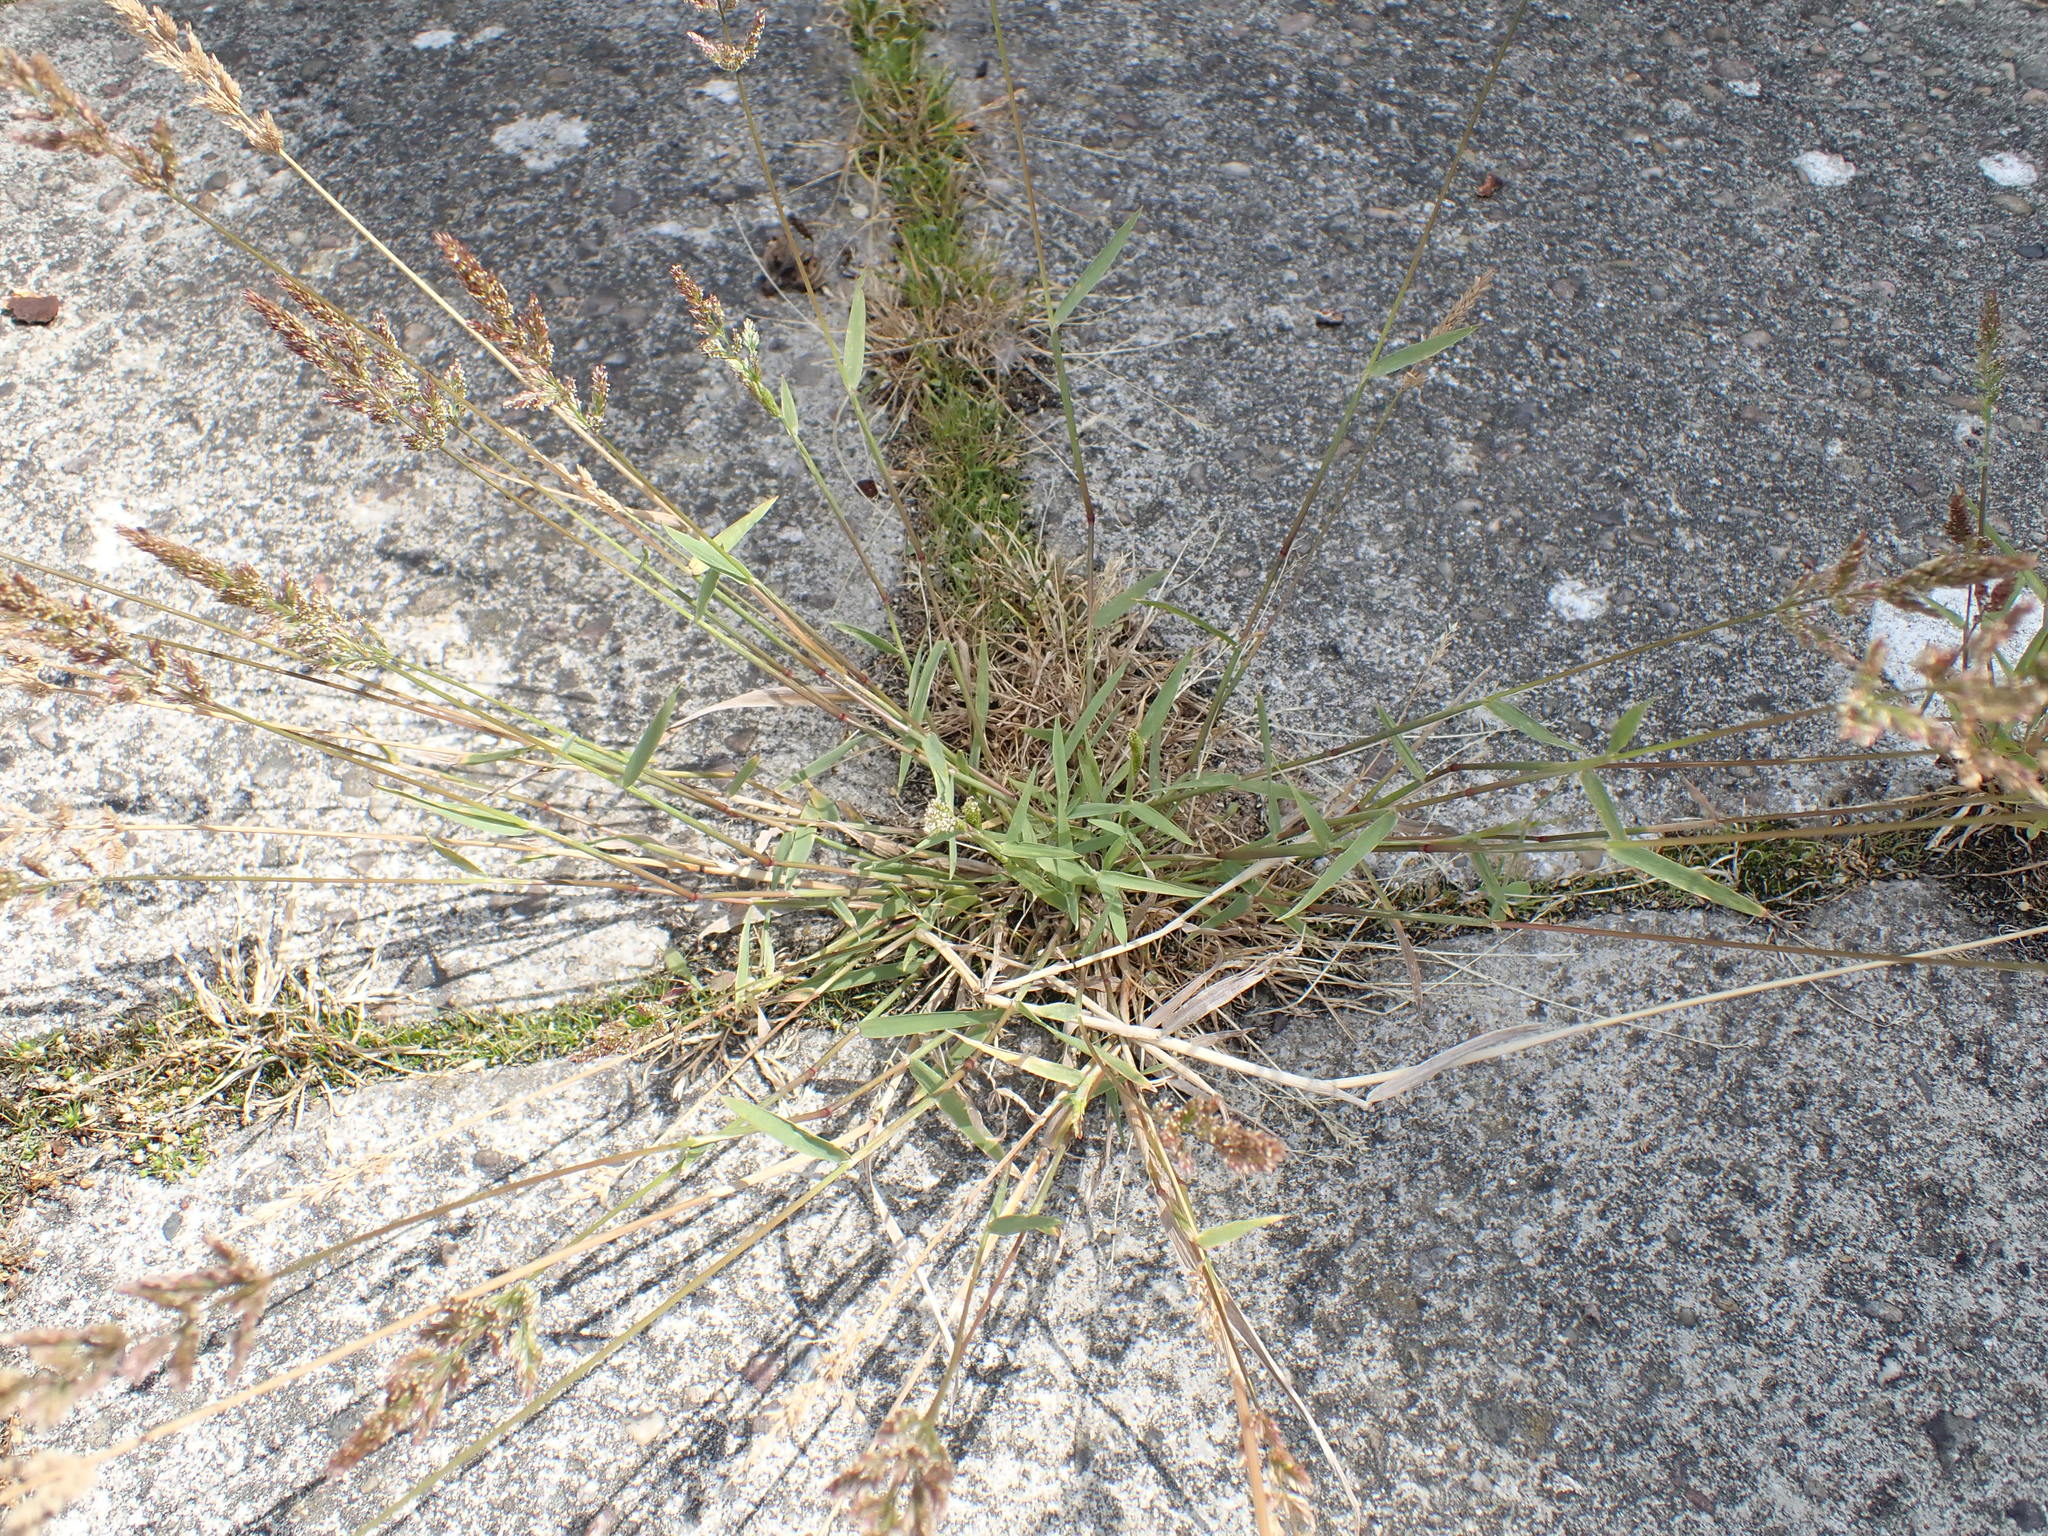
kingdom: Plantae
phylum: Tracheophyta
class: Liliopsida
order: Poales
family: Poaceae
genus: Polypogon
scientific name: Polypogon viridis
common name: Water bent
